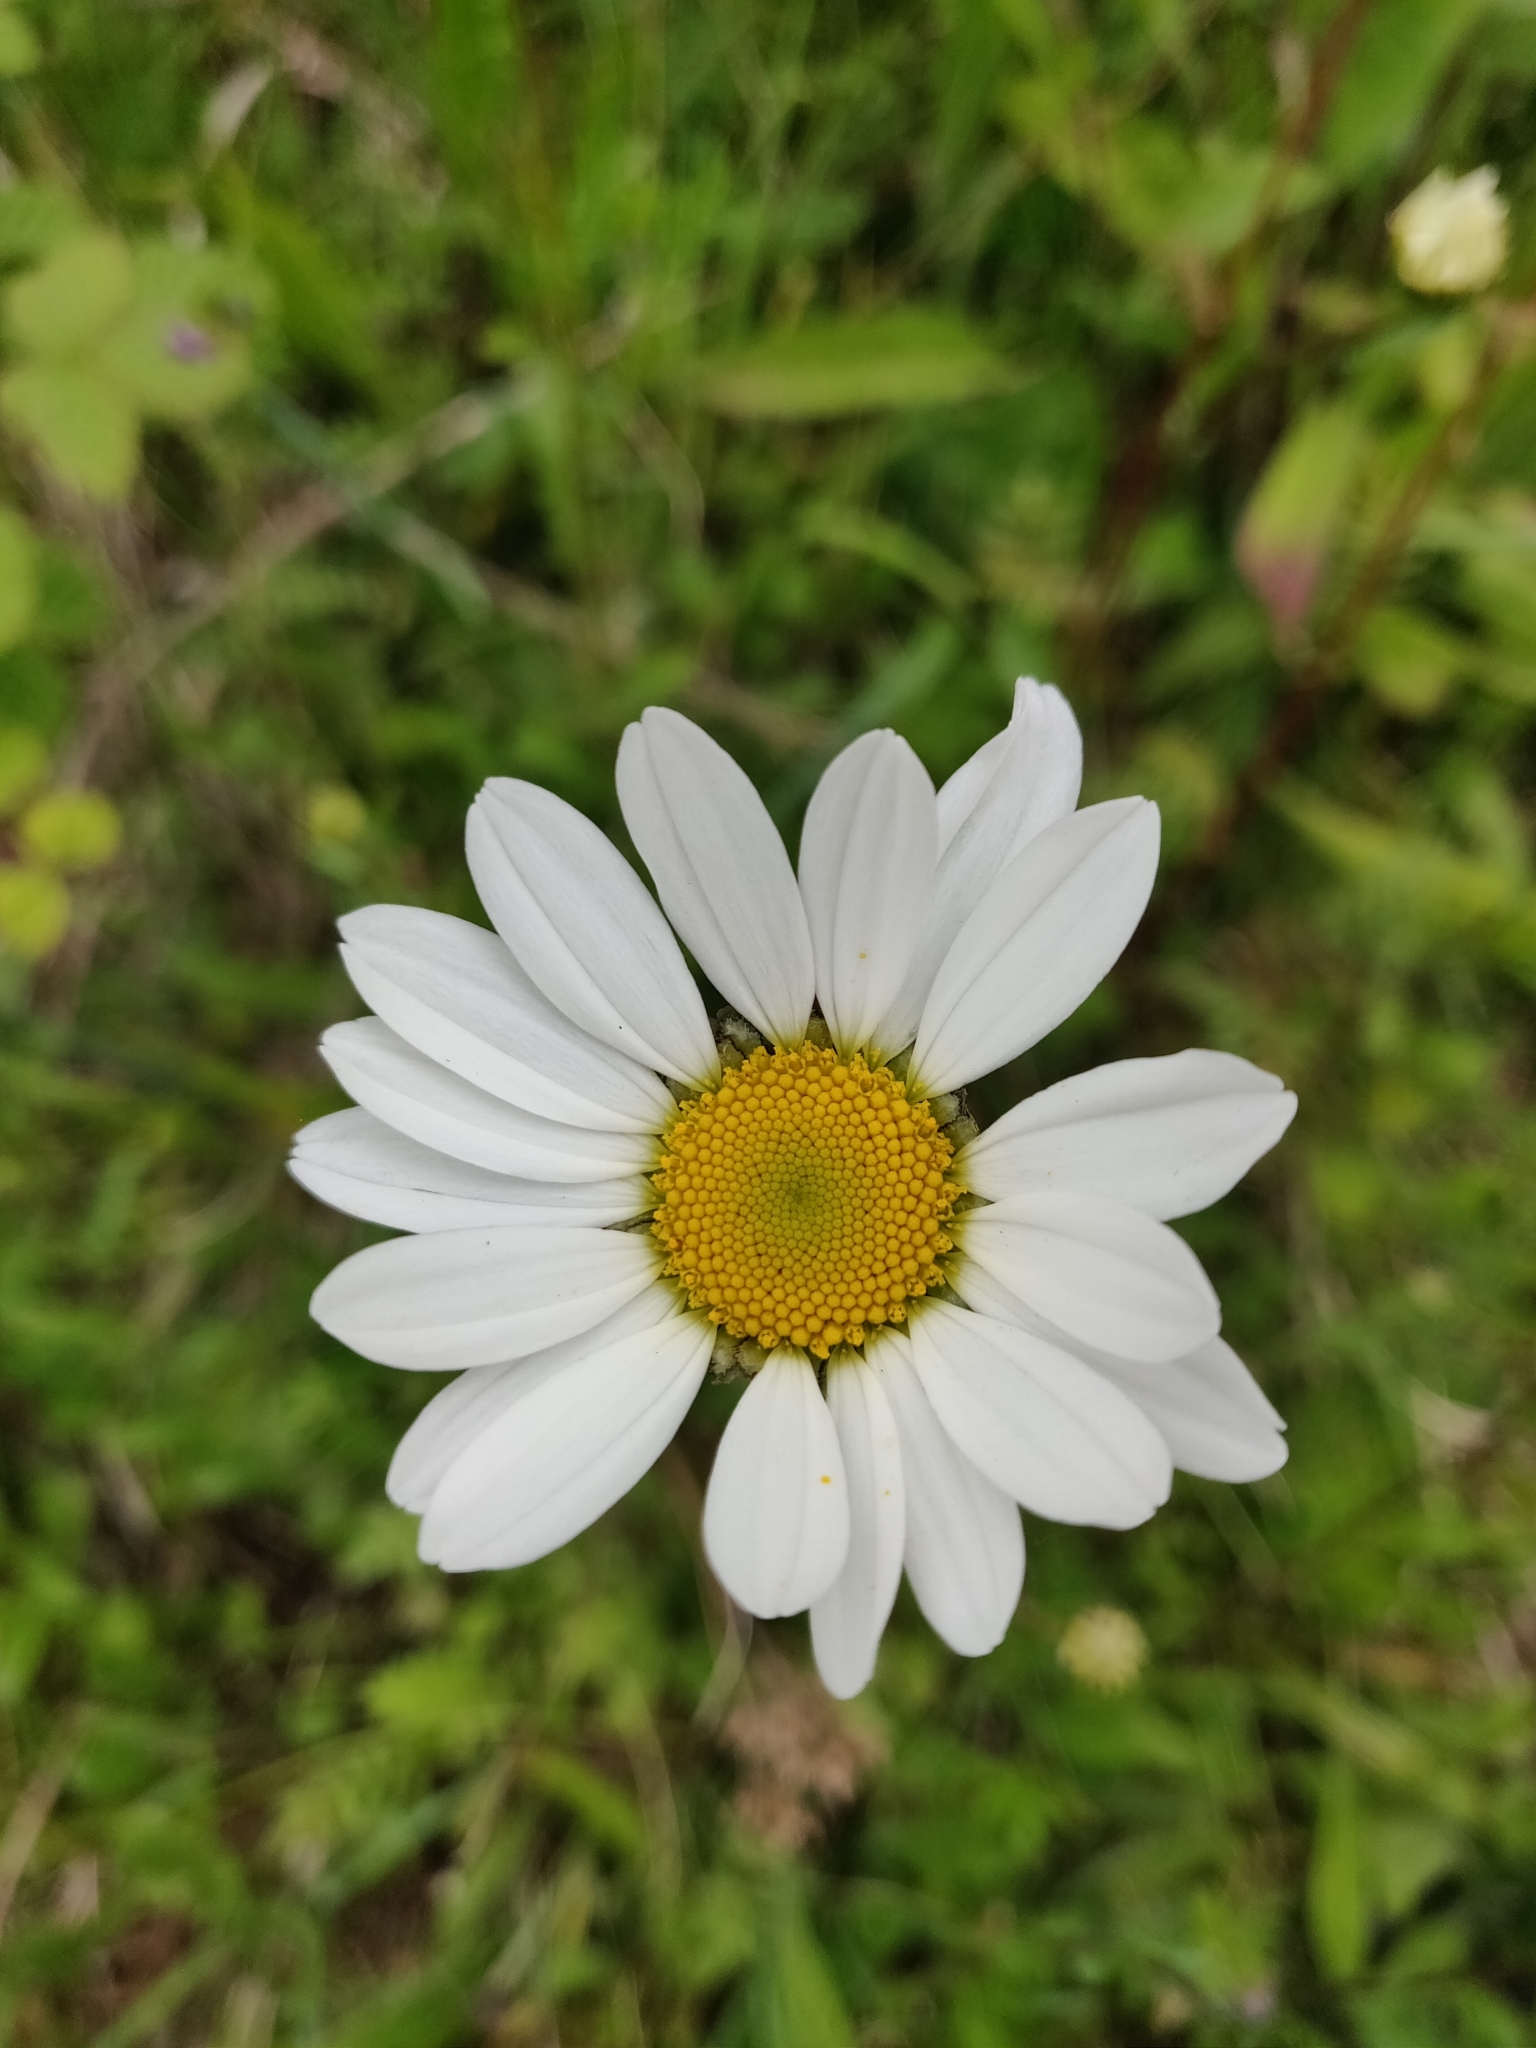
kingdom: Plantae
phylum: Tracheophyta
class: Magnoliopsida
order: Asterales
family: Asteraceae
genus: Leucanthemum
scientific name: Leucanthemum vulgare
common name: Oxeye daisy
